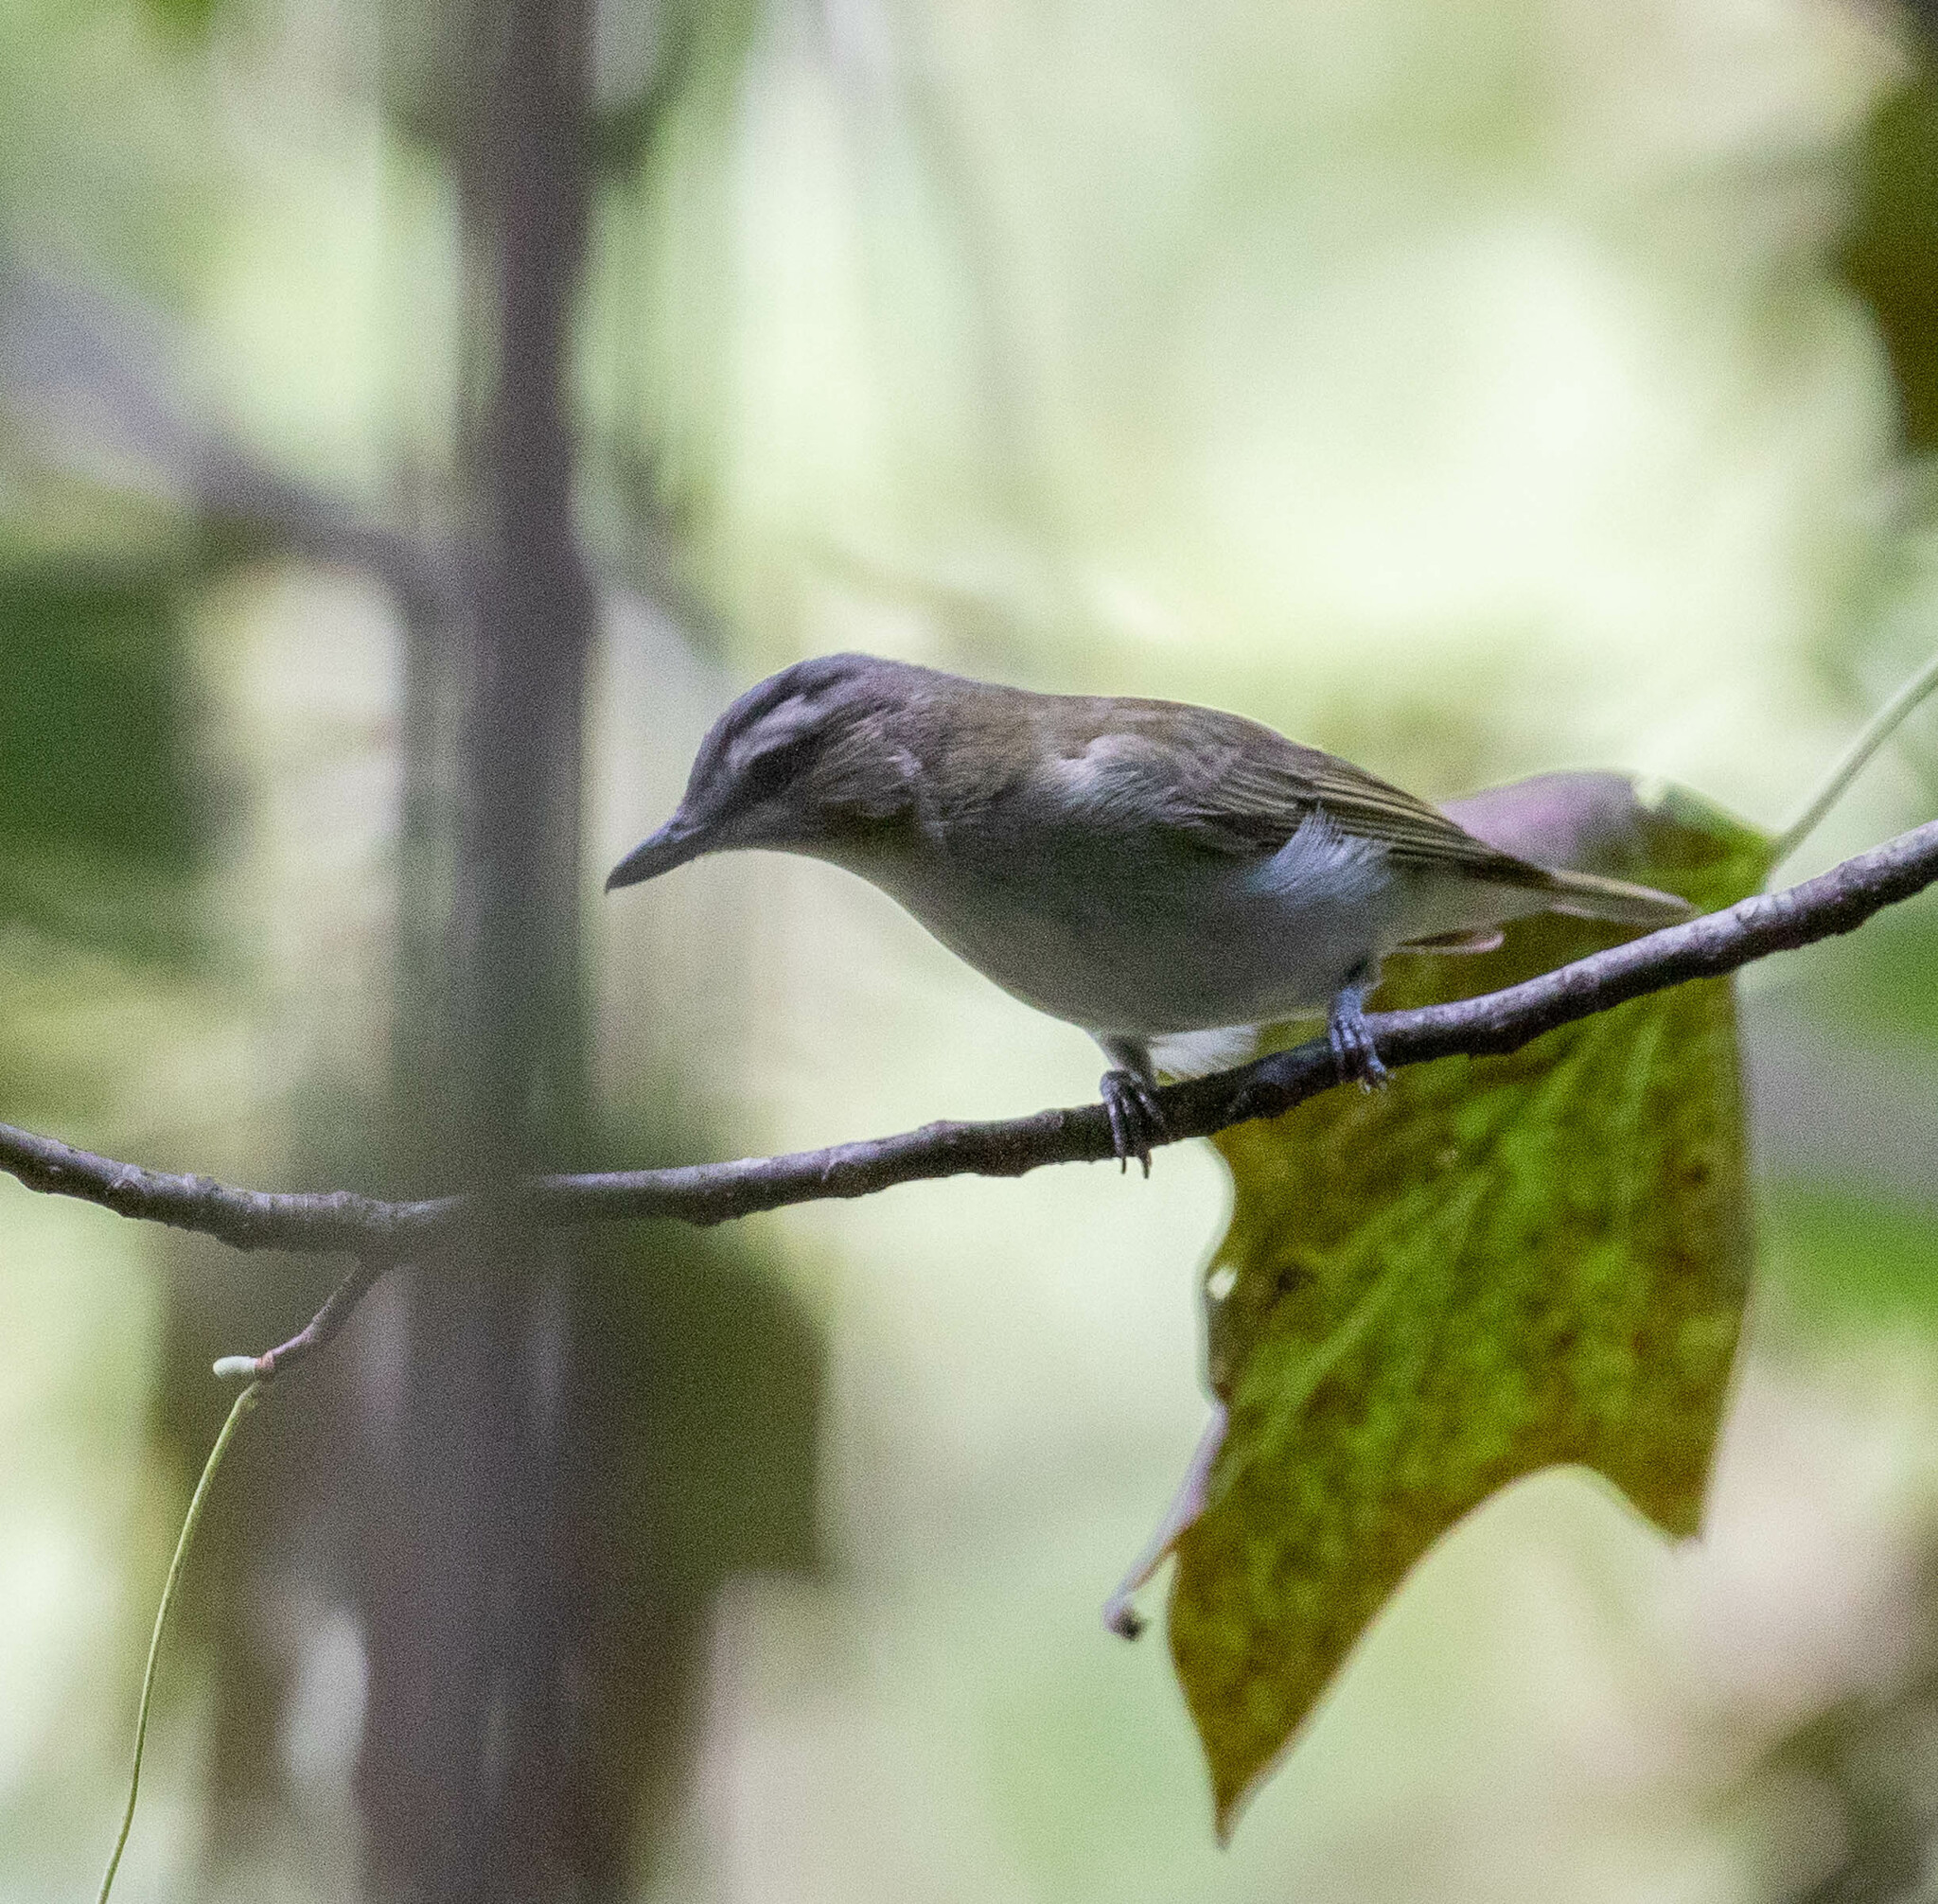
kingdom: Animalia
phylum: Chordata
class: Aves
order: Passeriformes
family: Vireonidae
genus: Vireo
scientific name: Vireo olivaceus
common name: Red-eyed vireo
